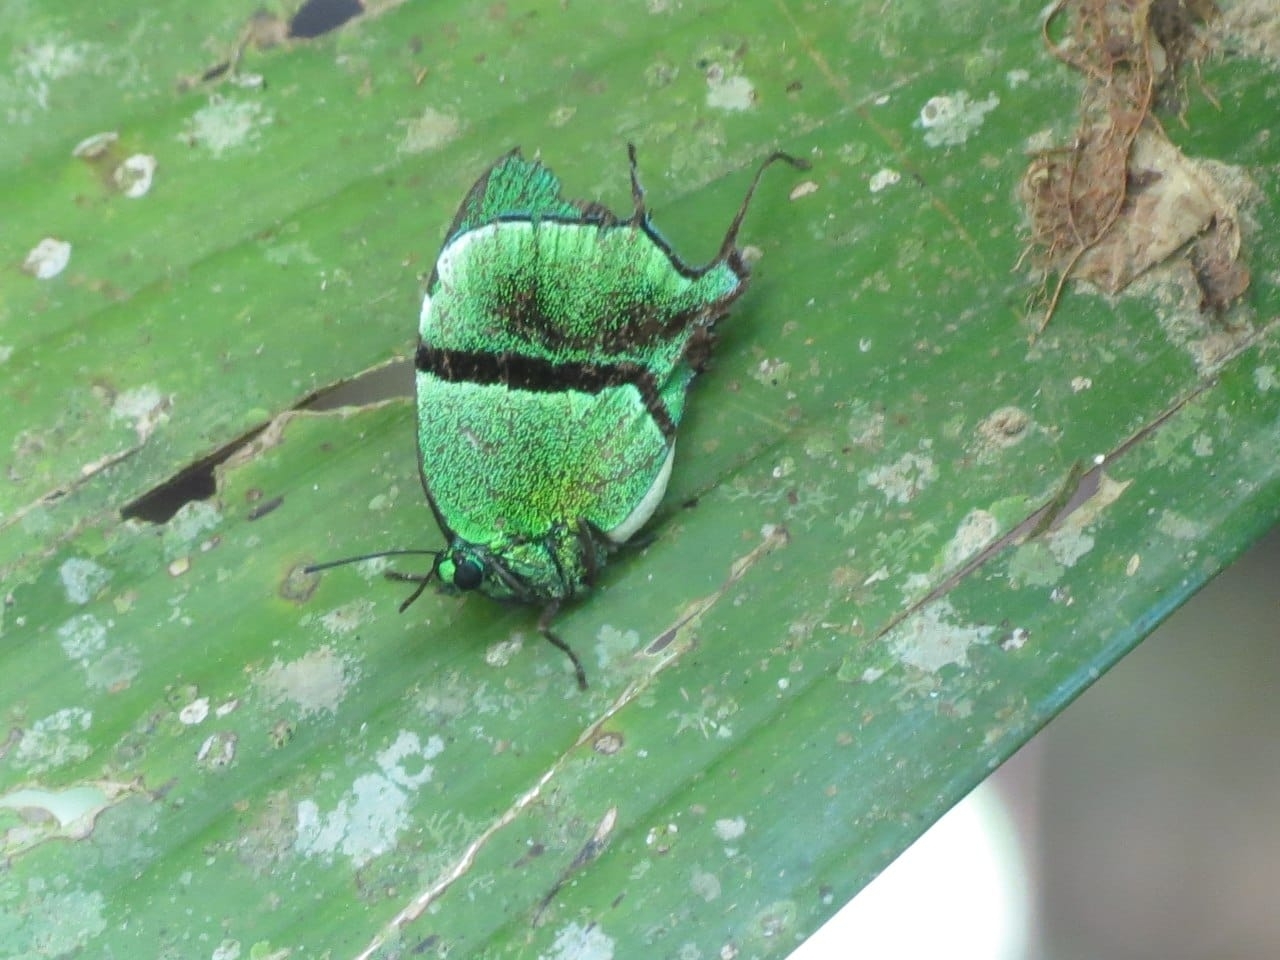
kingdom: Animalia
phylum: Arthropoda
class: Insecta
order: Lepidoptera
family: Lycaenidae
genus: Thecla
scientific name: Thecla tuneta
